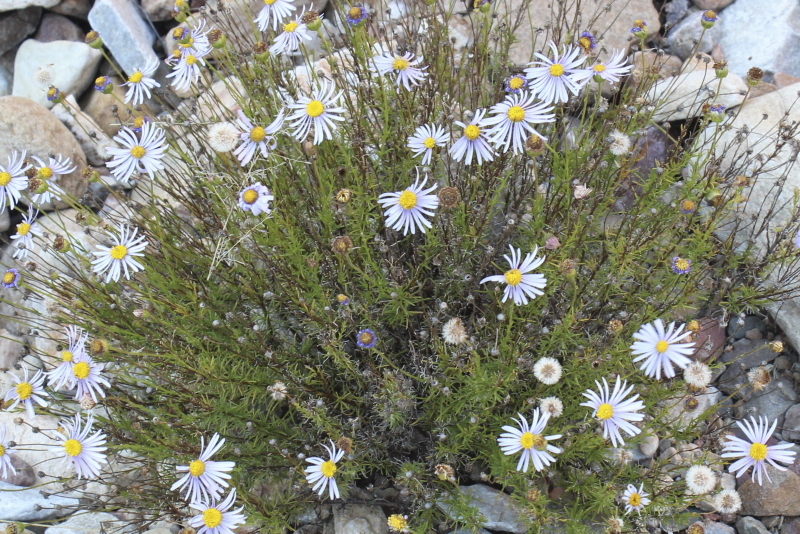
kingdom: Plantae
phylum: Tracheophyta
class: Magnoliopsida
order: Asterales
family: Asteraceae
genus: Felicia
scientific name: Felicia muricata
